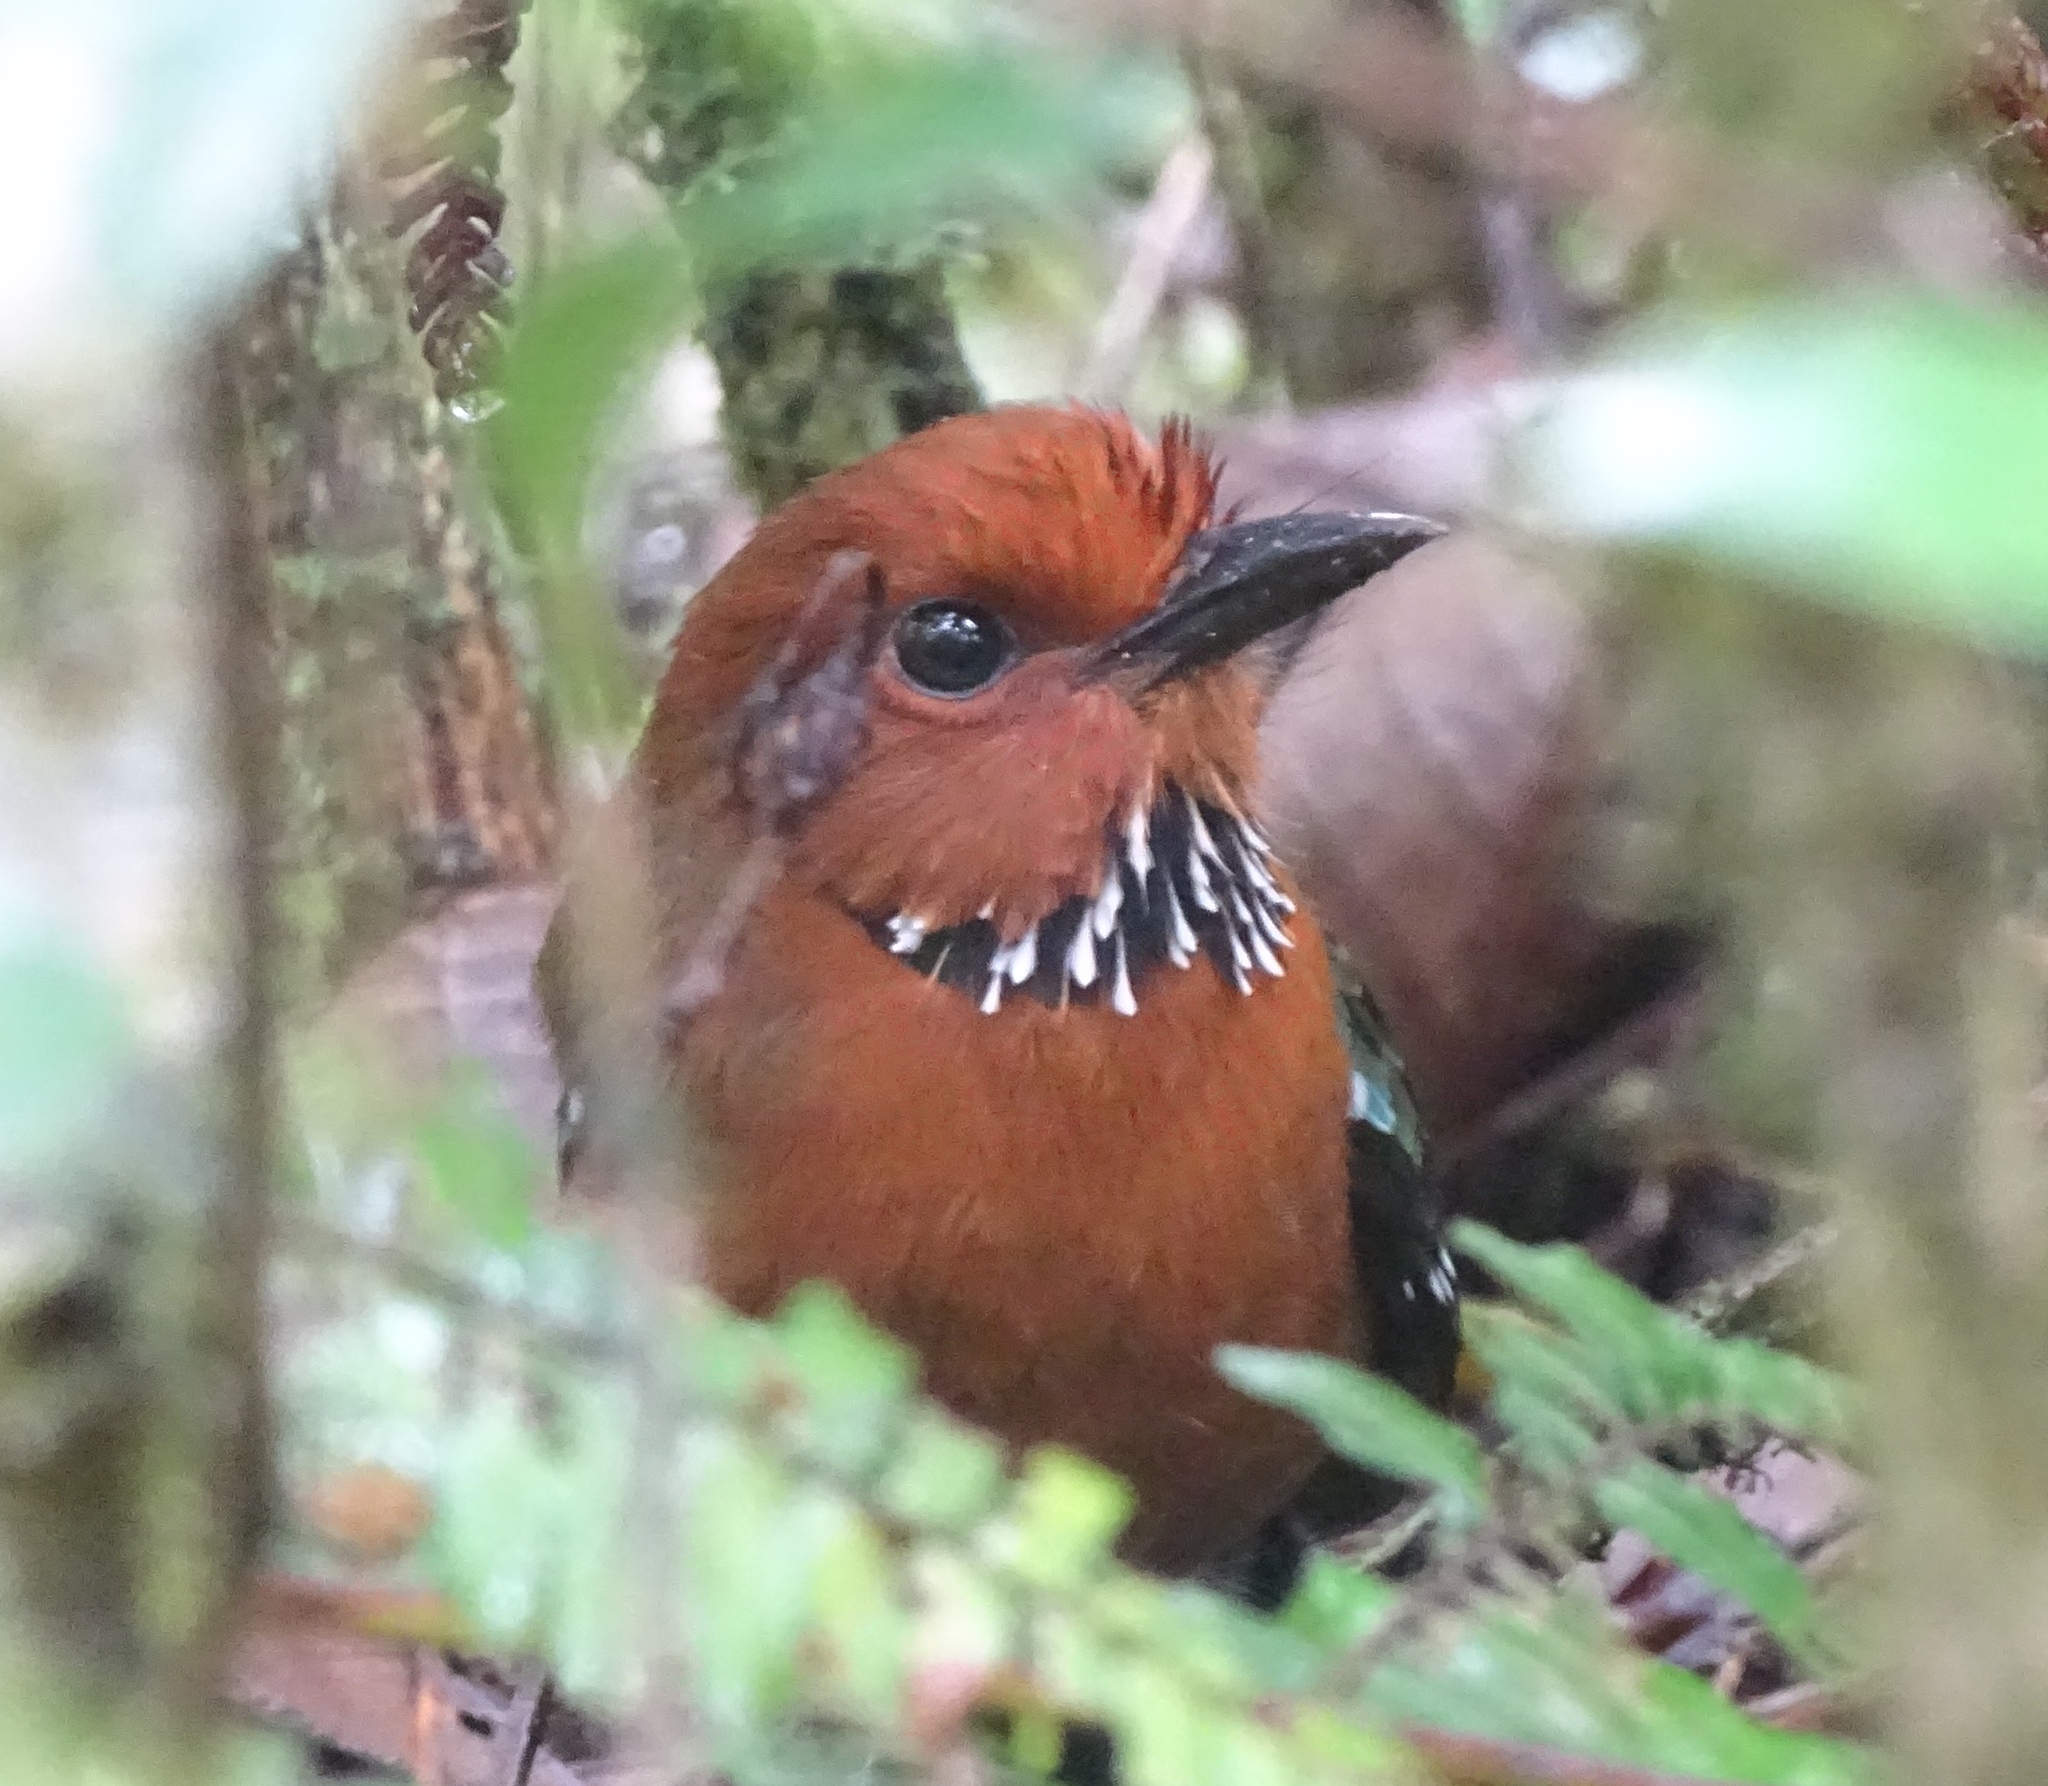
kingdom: Animalia
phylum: Chordata
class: Aves
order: Coraciiformes
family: Brachypteraciidae
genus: Atelornis
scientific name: Atelornis crossleyi
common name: Rufous-headed ground-roller
